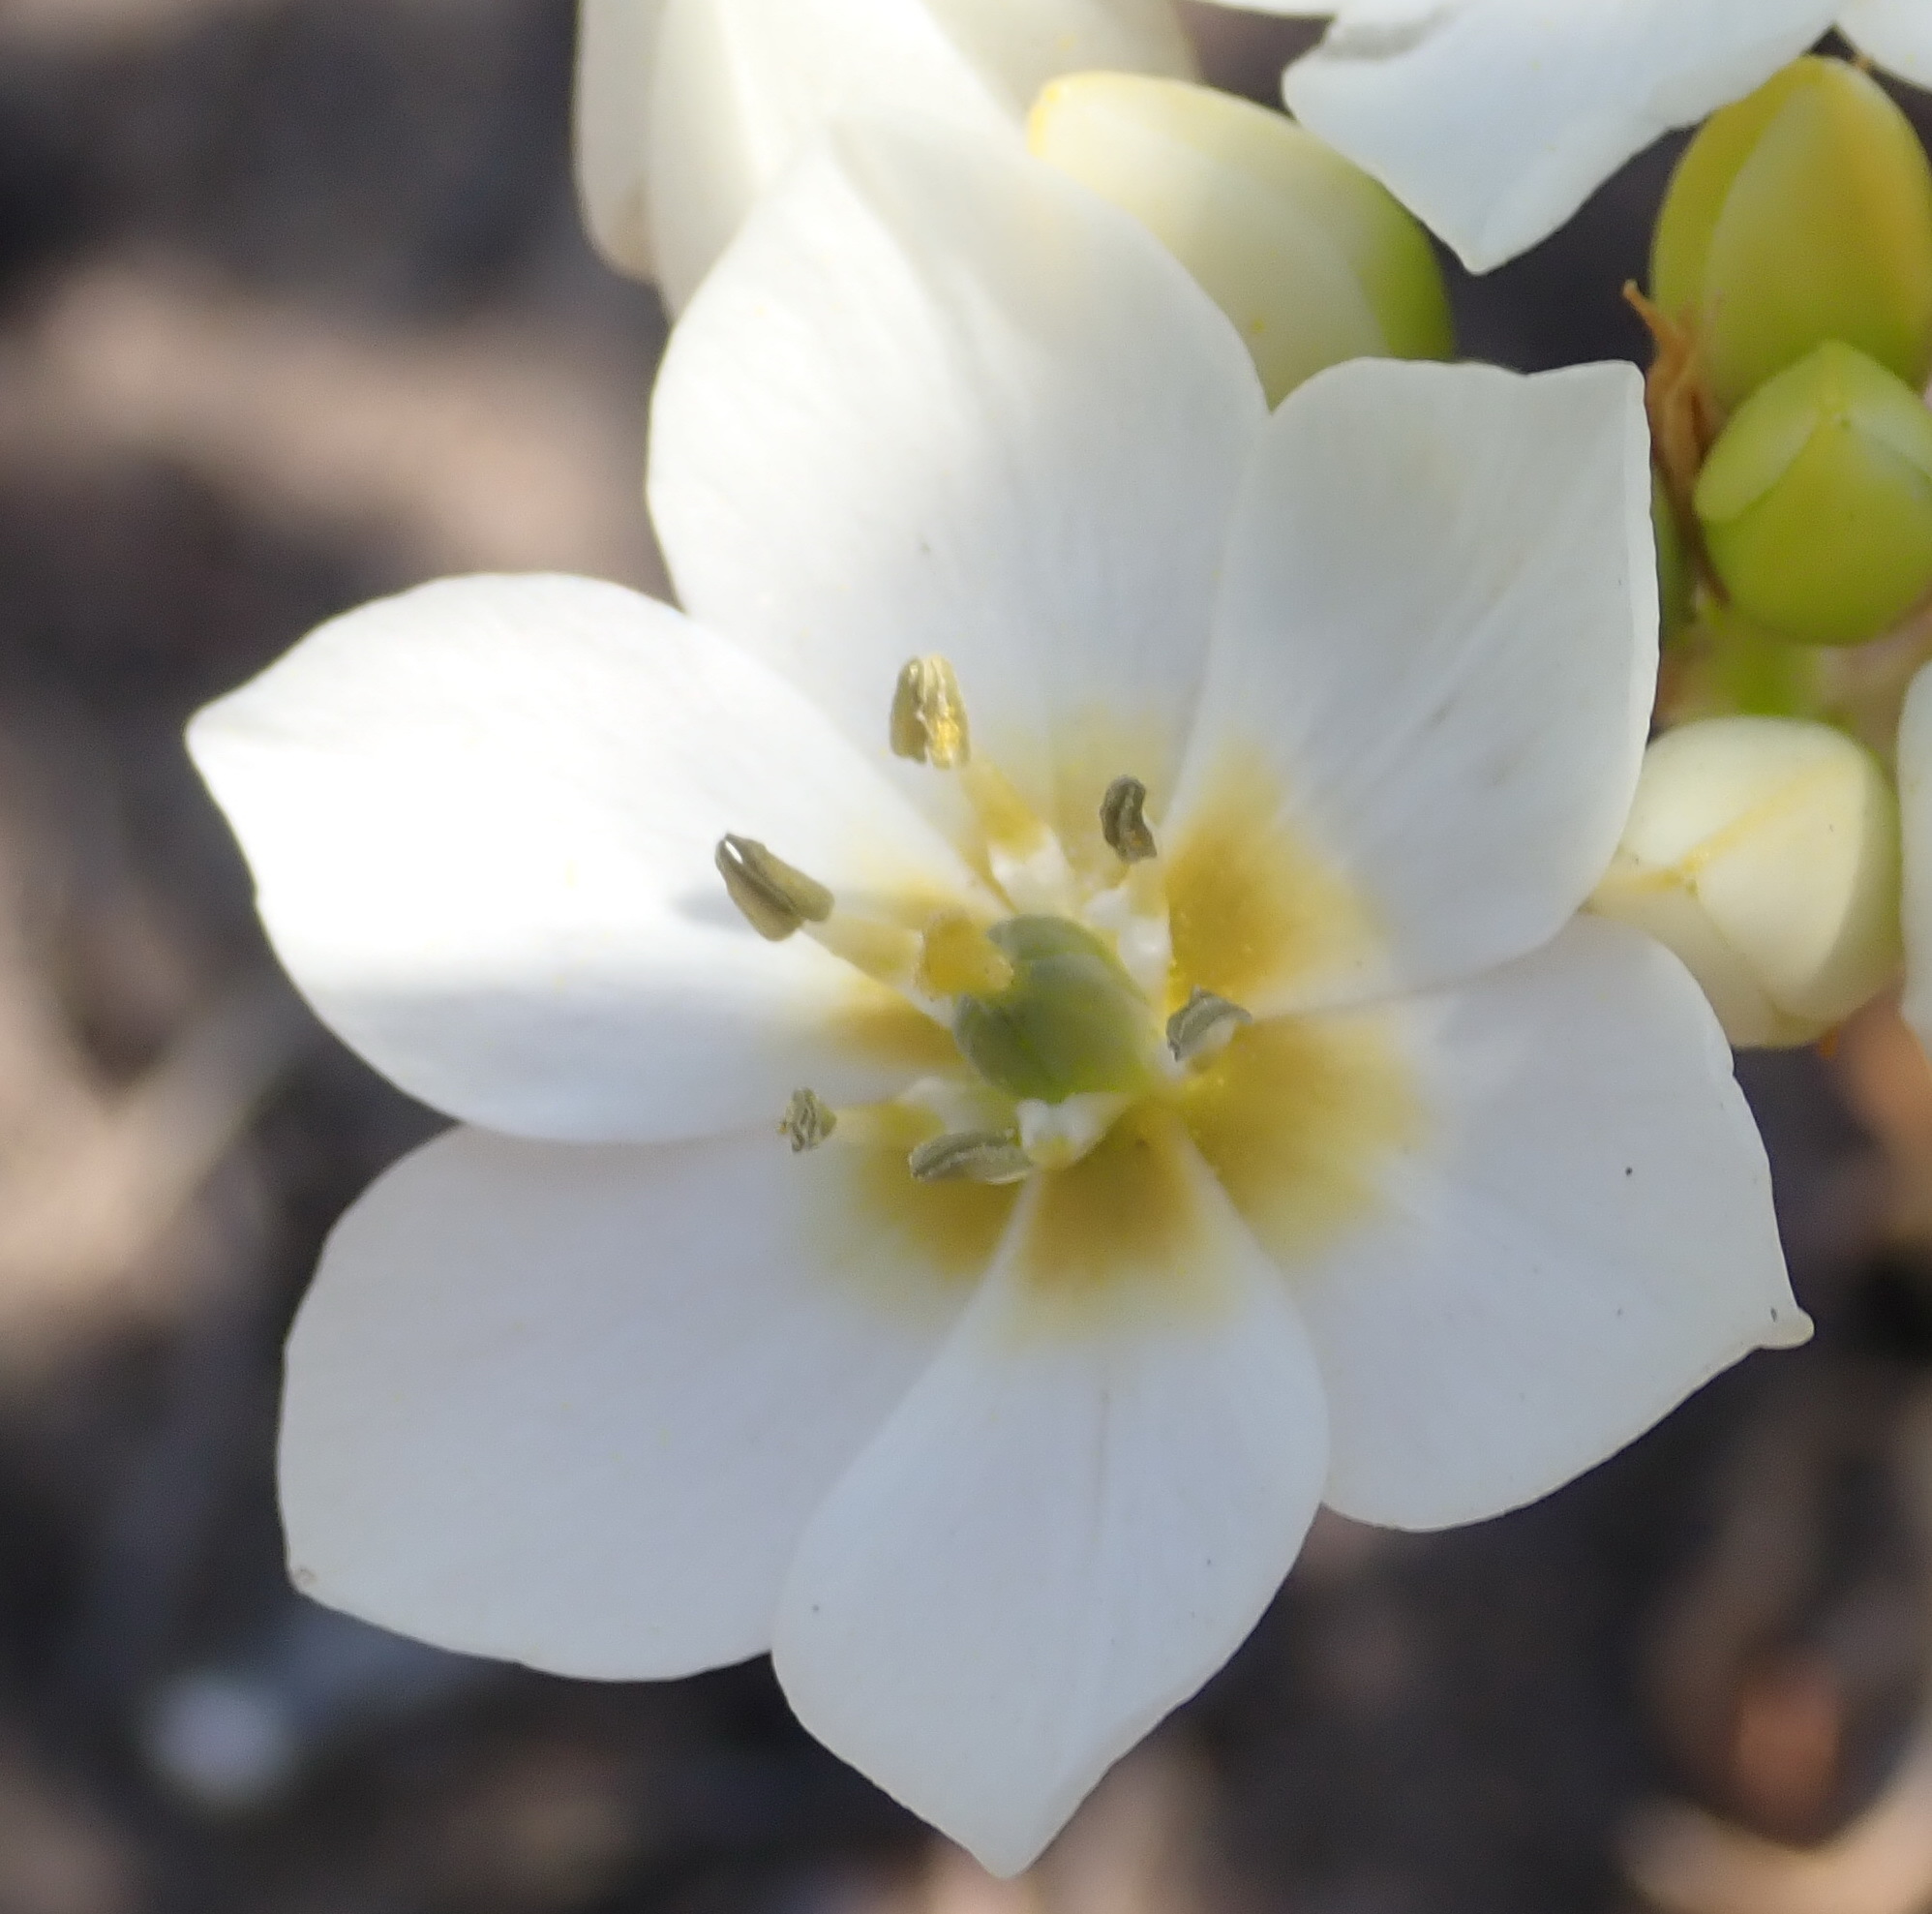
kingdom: Plantae
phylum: Tracheophyta
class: Liliopsida
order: Asparagales
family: Asparagaceae
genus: Ornithogalum
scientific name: Ornithogalum dubium
